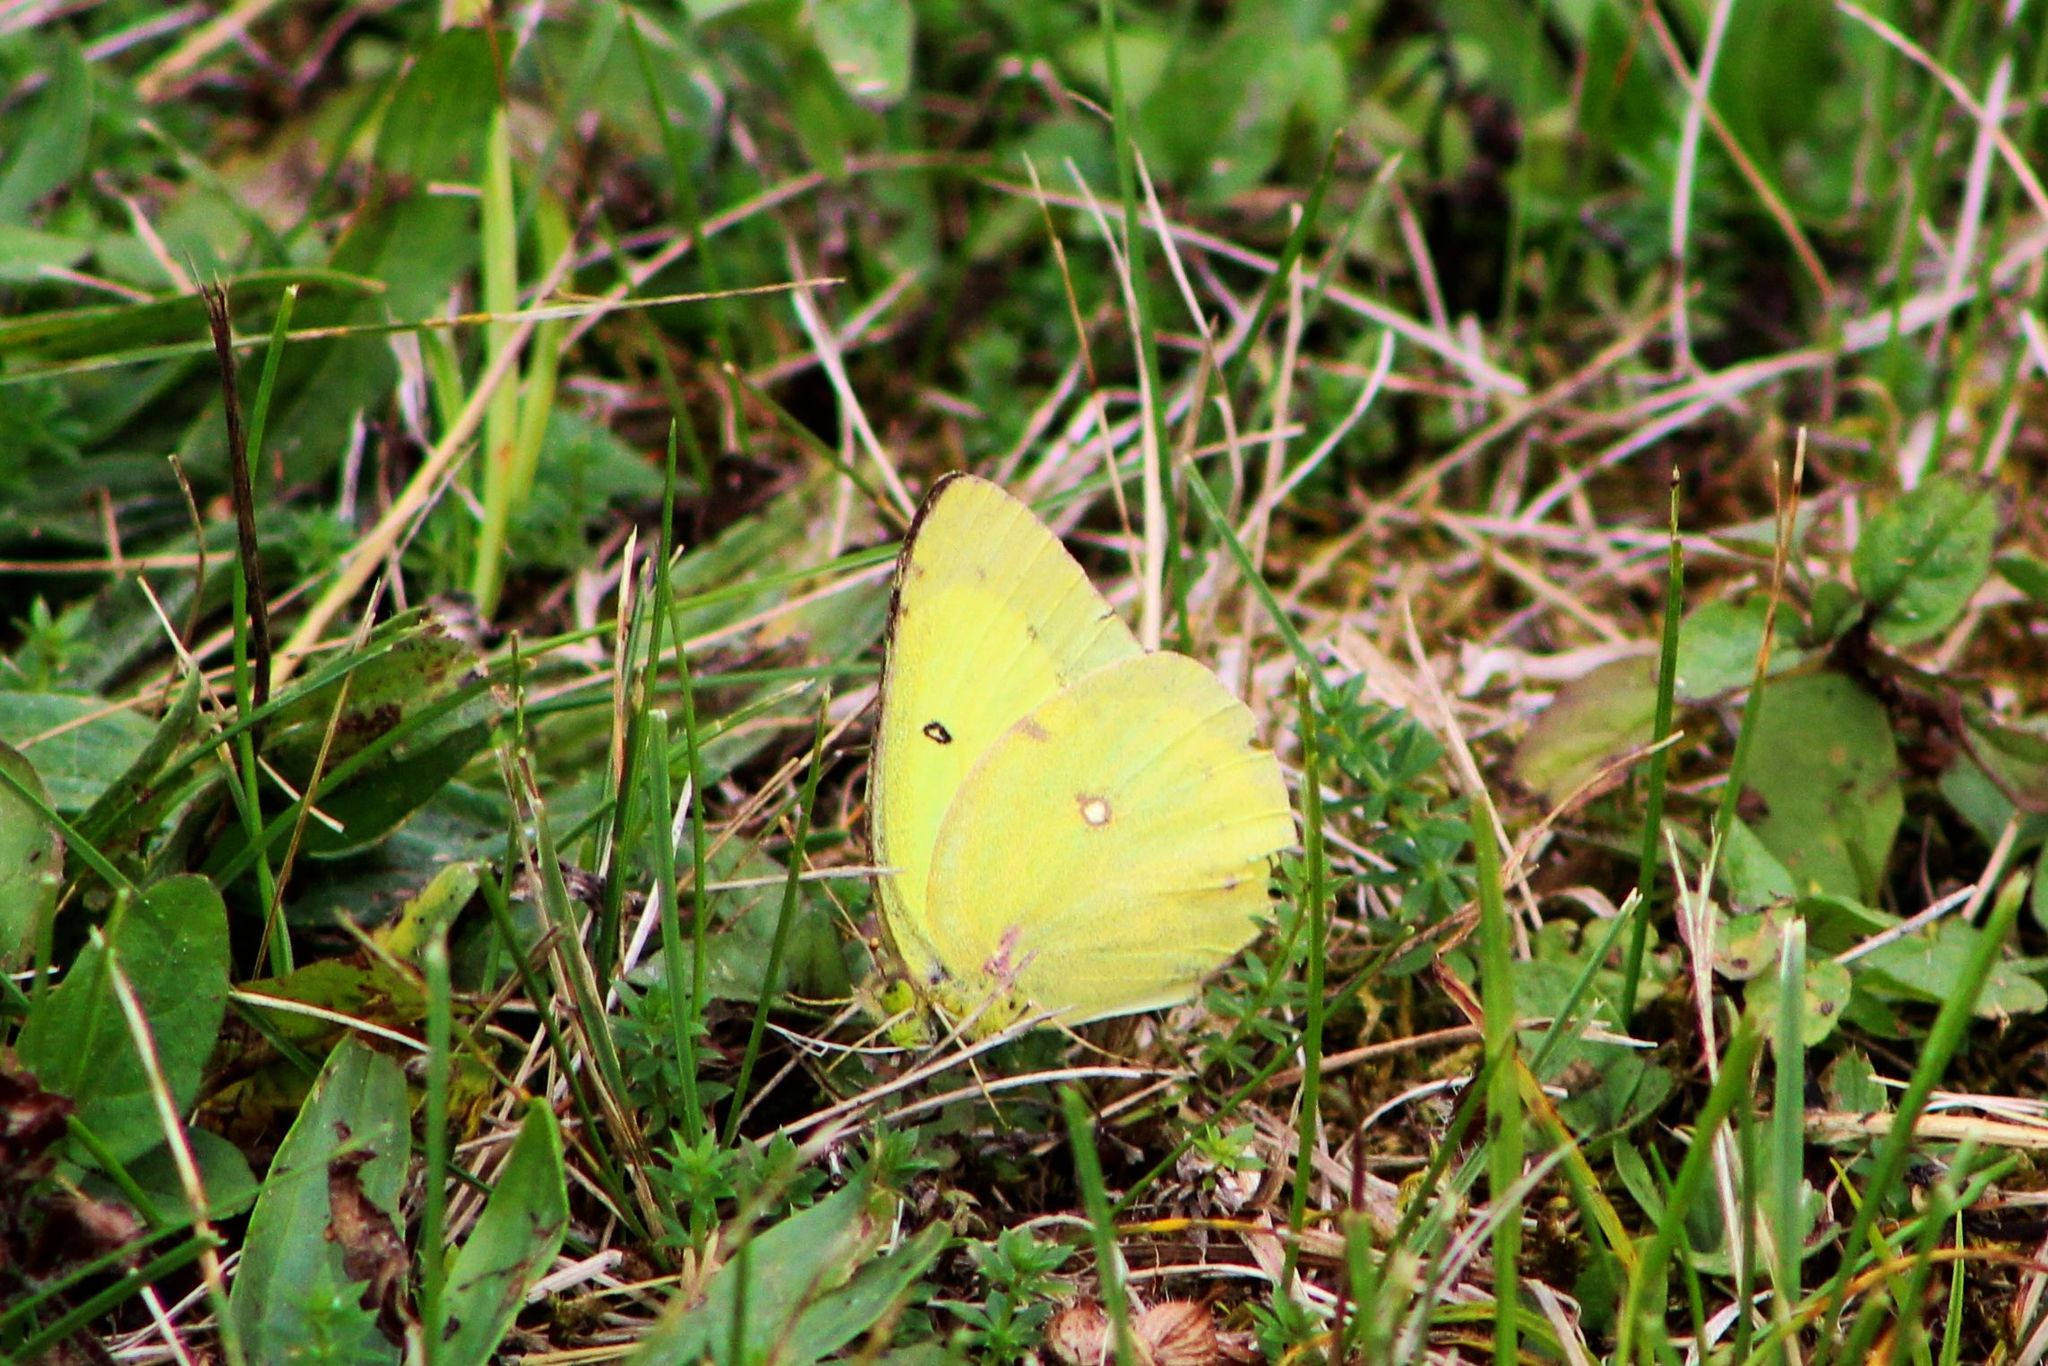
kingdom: Animalia
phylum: Arthropoda
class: Insecta
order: Lepidoptera
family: Pieridae
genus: Colias
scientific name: Colias philodice
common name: Clouded sulphur
